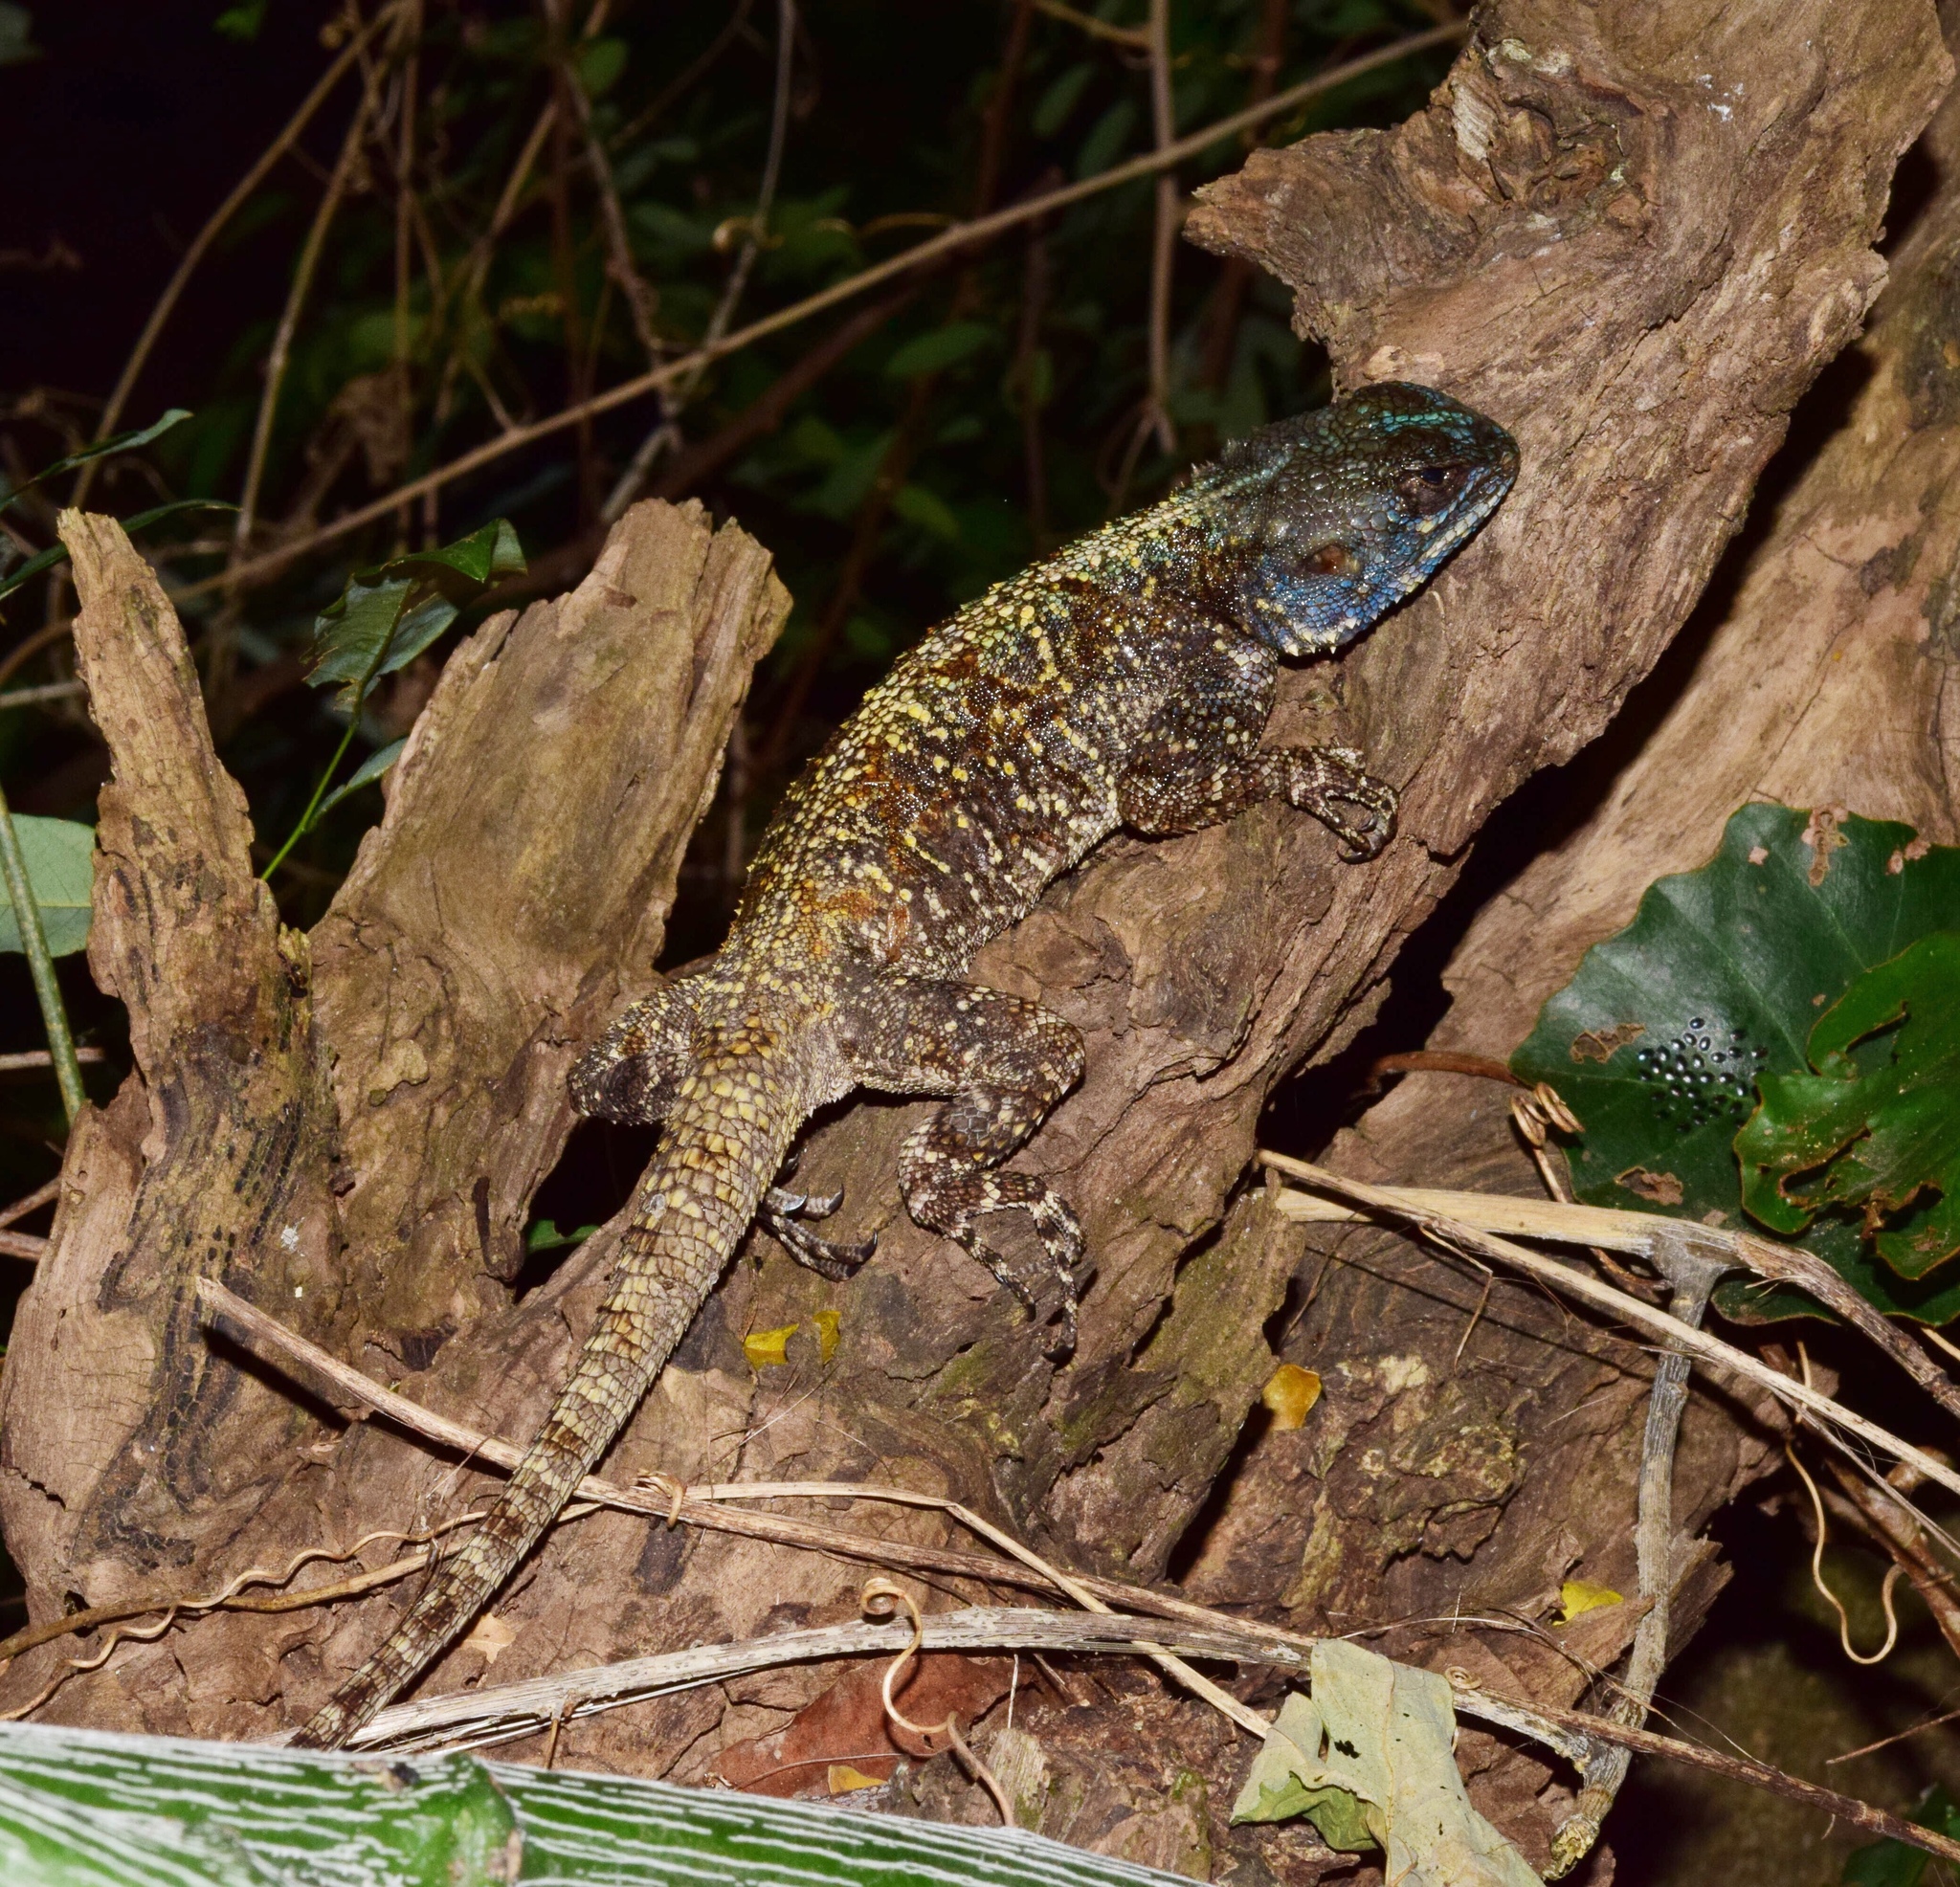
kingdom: Animalia
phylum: Chordata
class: Squamata
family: Agamidae
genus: Acanthocercus
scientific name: Acanthocercus atricollis
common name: Southern tree agama
